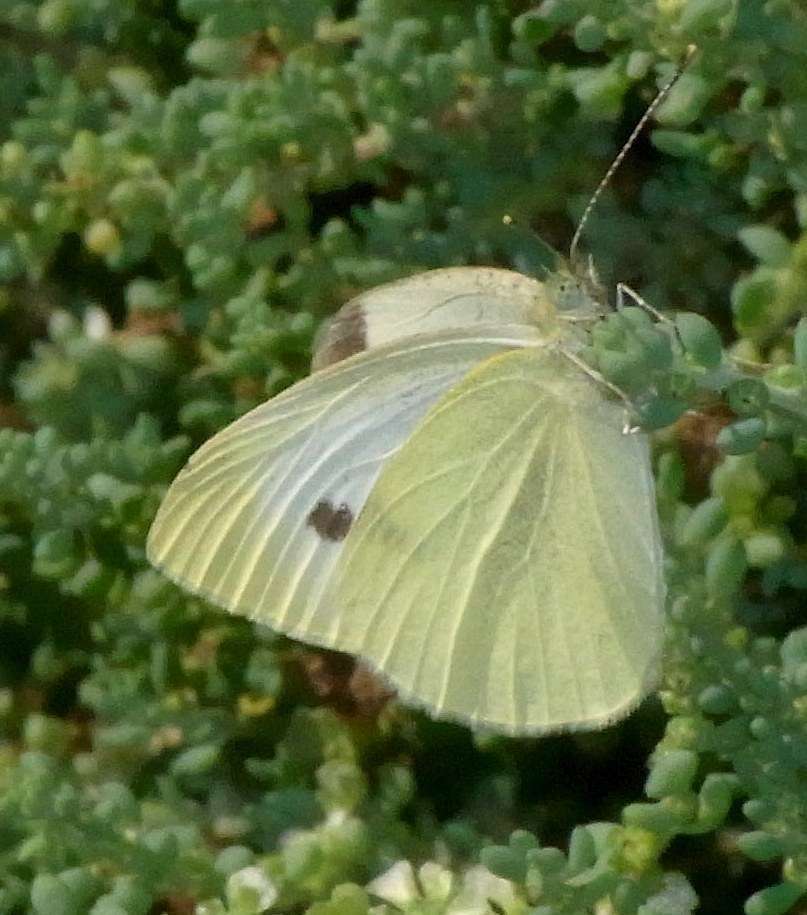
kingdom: Animalia
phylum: Arthropoda
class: Insecta
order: Lepidoptera
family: Pieridae
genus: Pieris
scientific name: Pieris rapae
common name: Small white
